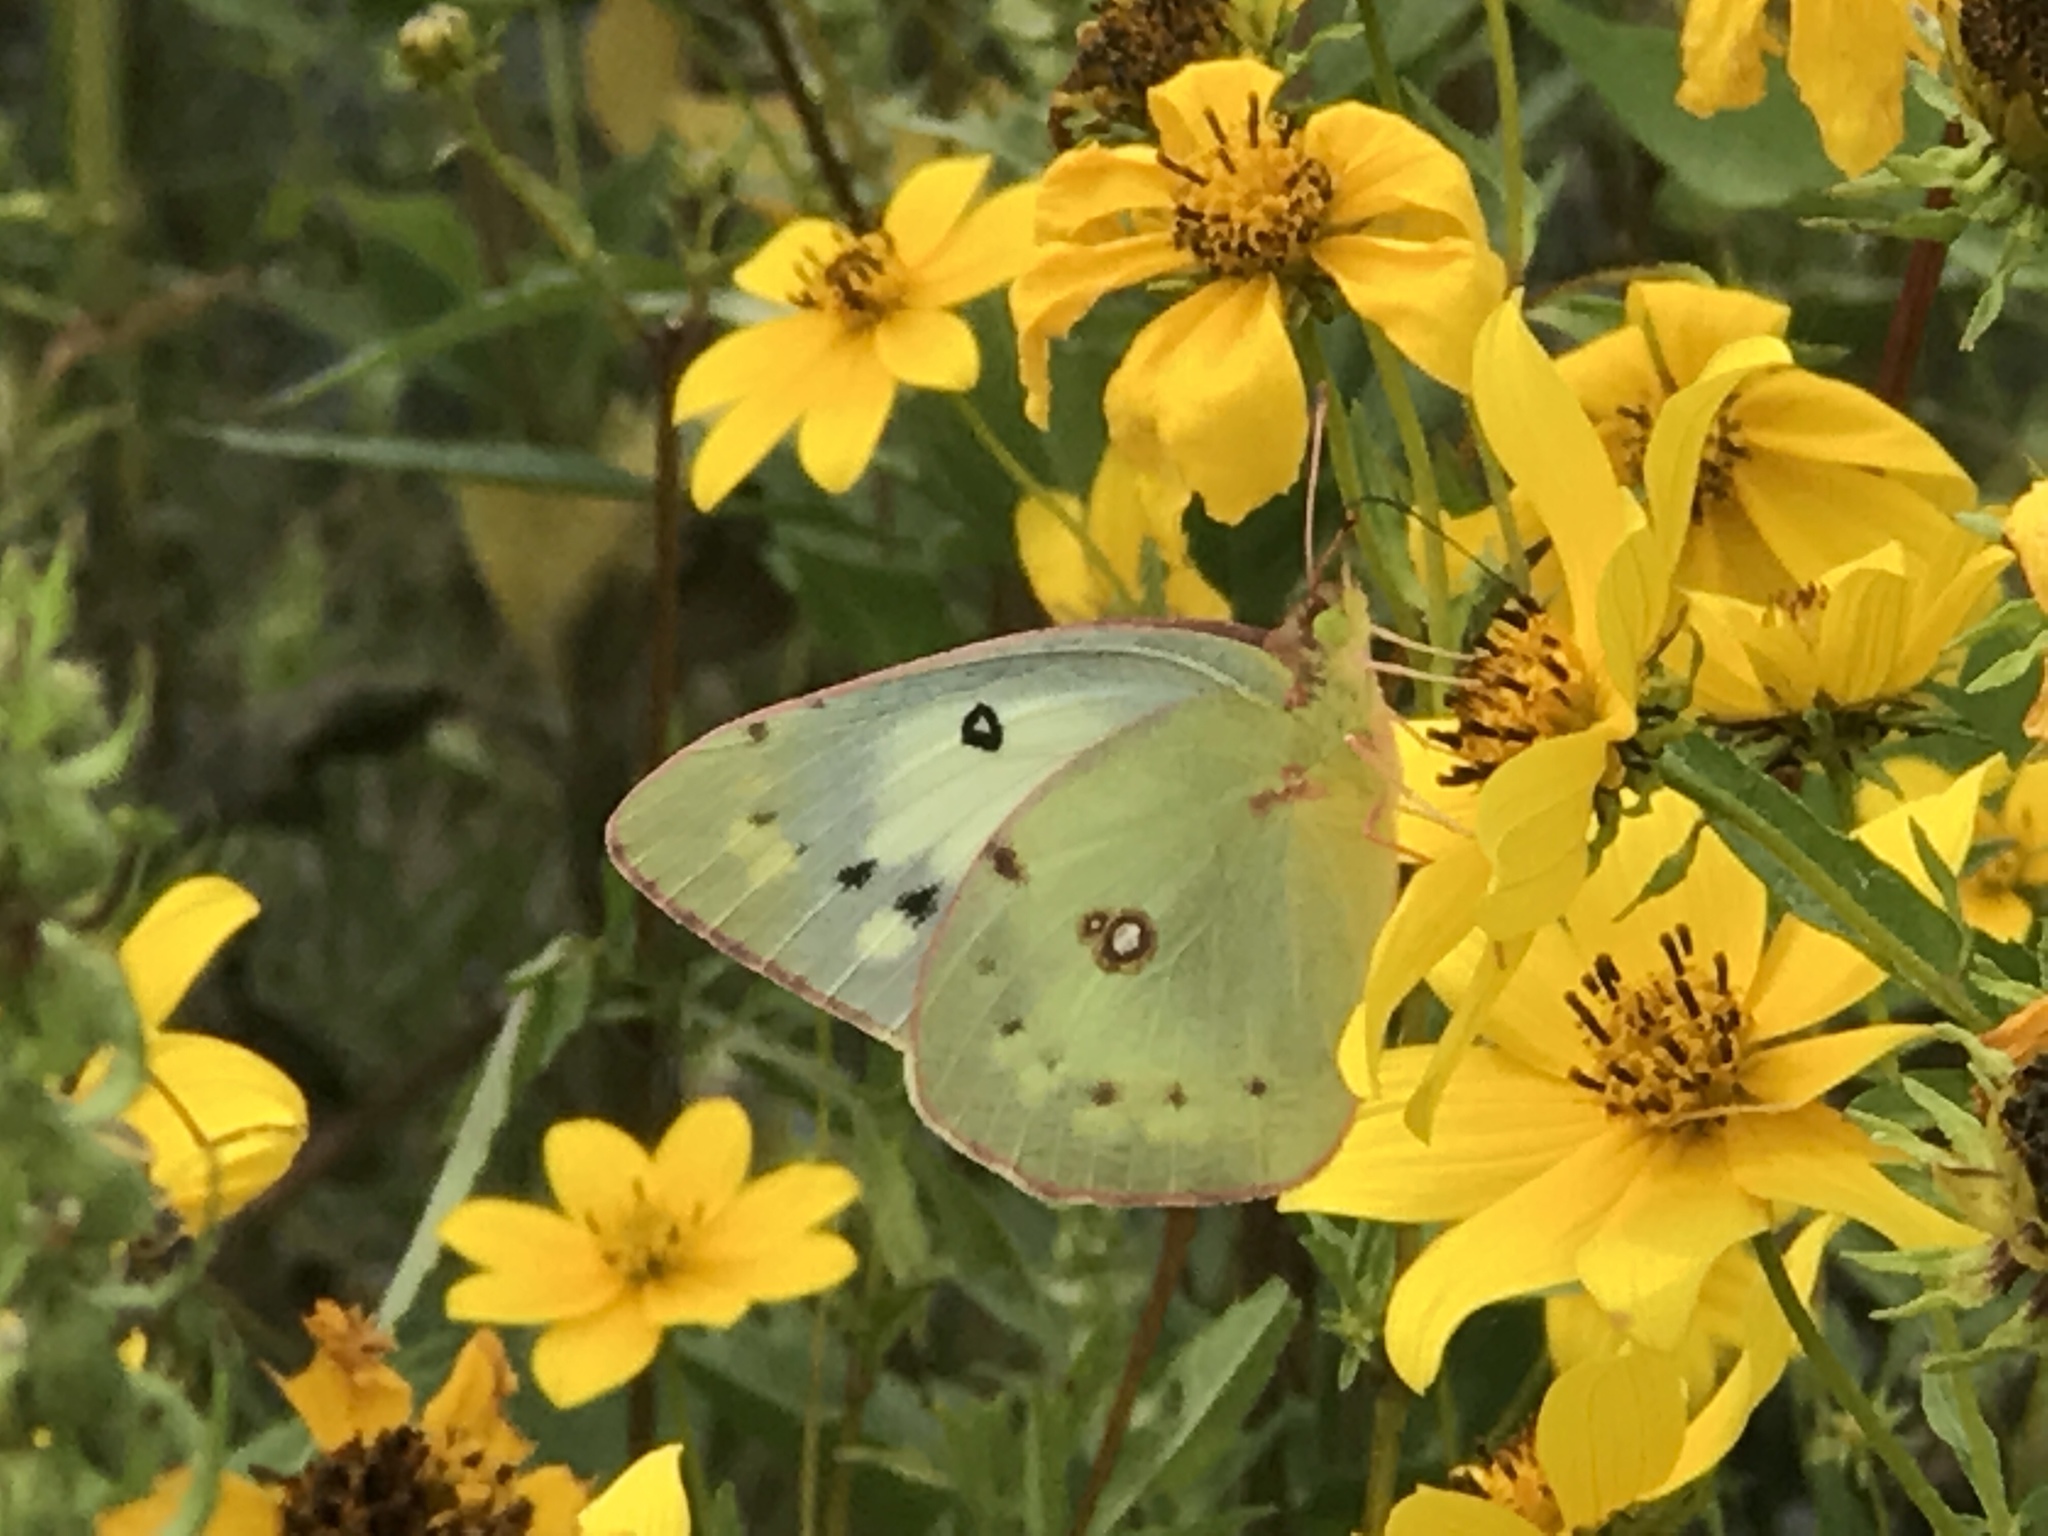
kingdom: Animalia
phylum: Arthropoda
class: Insecta
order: Lepidoptera
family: Pieridae
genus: Colias
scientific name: Colias eurytheme
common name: Alfalfa butterfly
